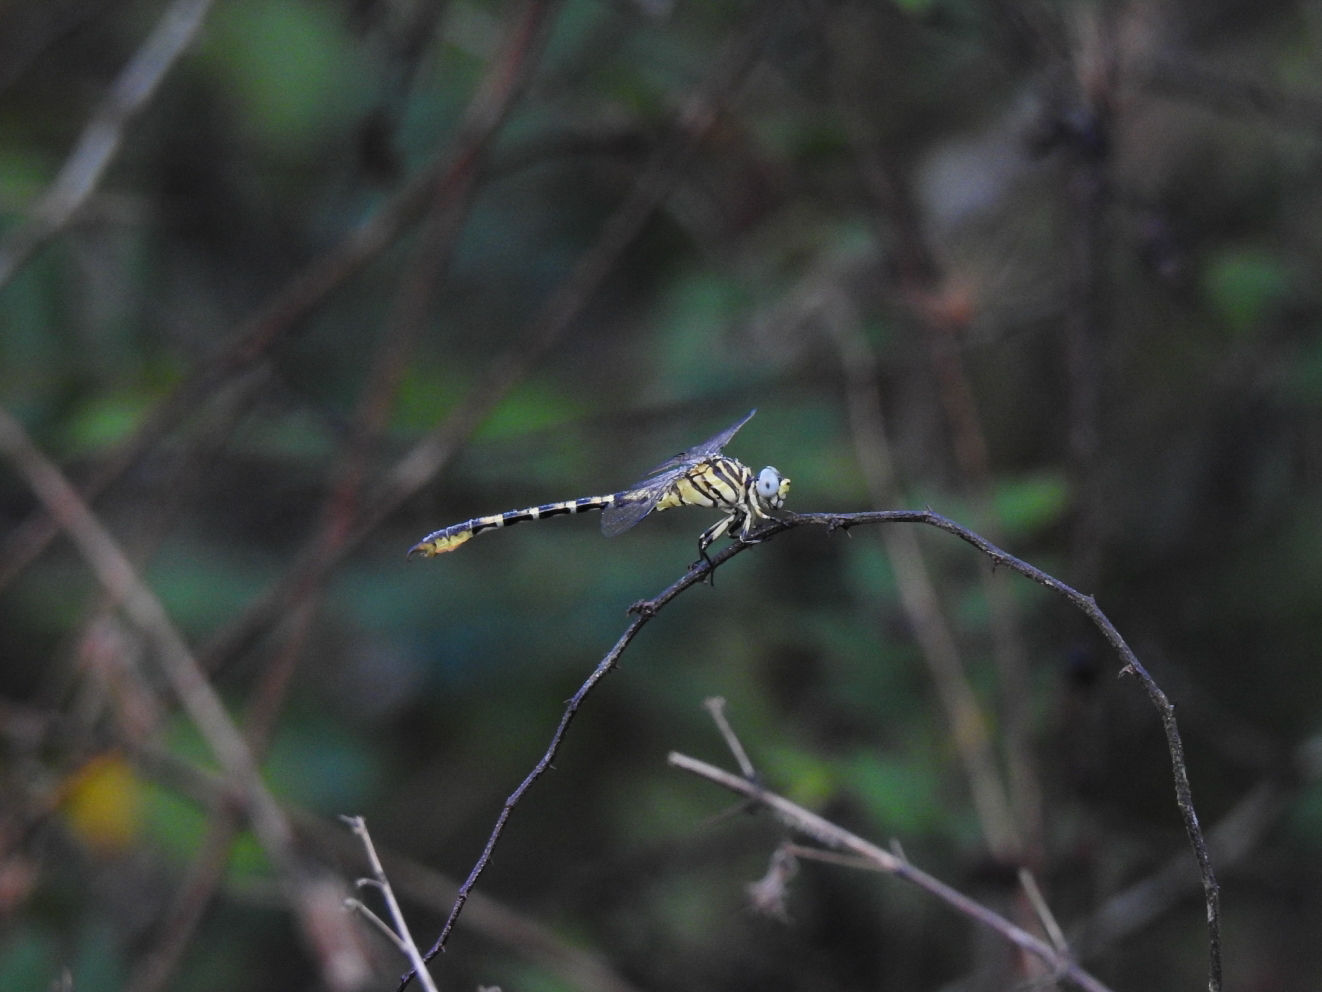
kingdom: Animalia
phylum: Arthropoda
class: Insecta
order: Odonata
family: Gomphidae
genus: Paragomphus
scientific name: Paragomphus lineatus
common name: Lined hooktail
